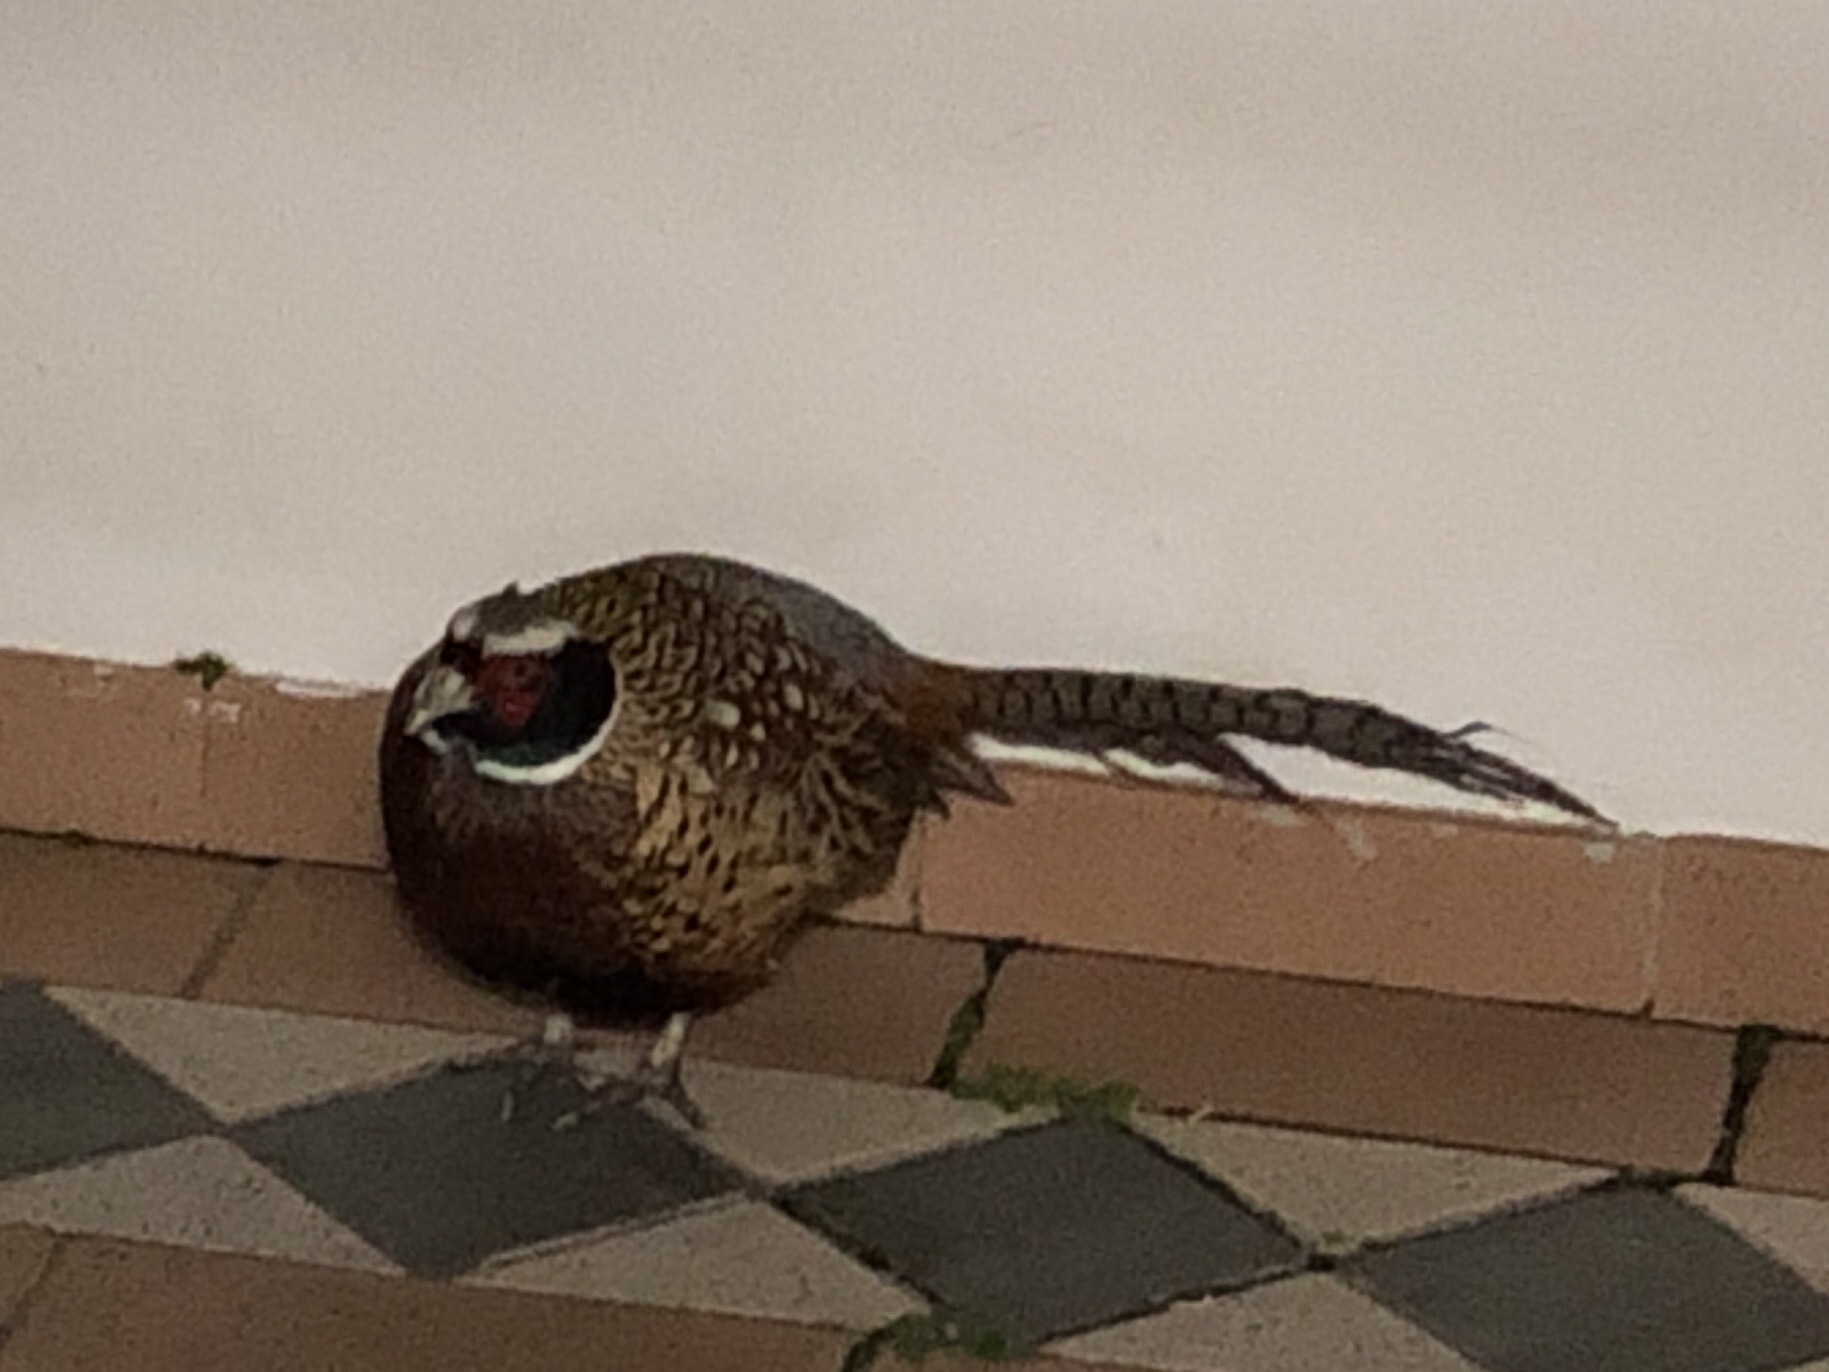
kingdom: Animalia
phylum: Chordata
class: Aves
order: Galliformes
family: Phasianidae
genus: Phasianus
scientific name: Phasianus colchicus
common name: Common pheasant
